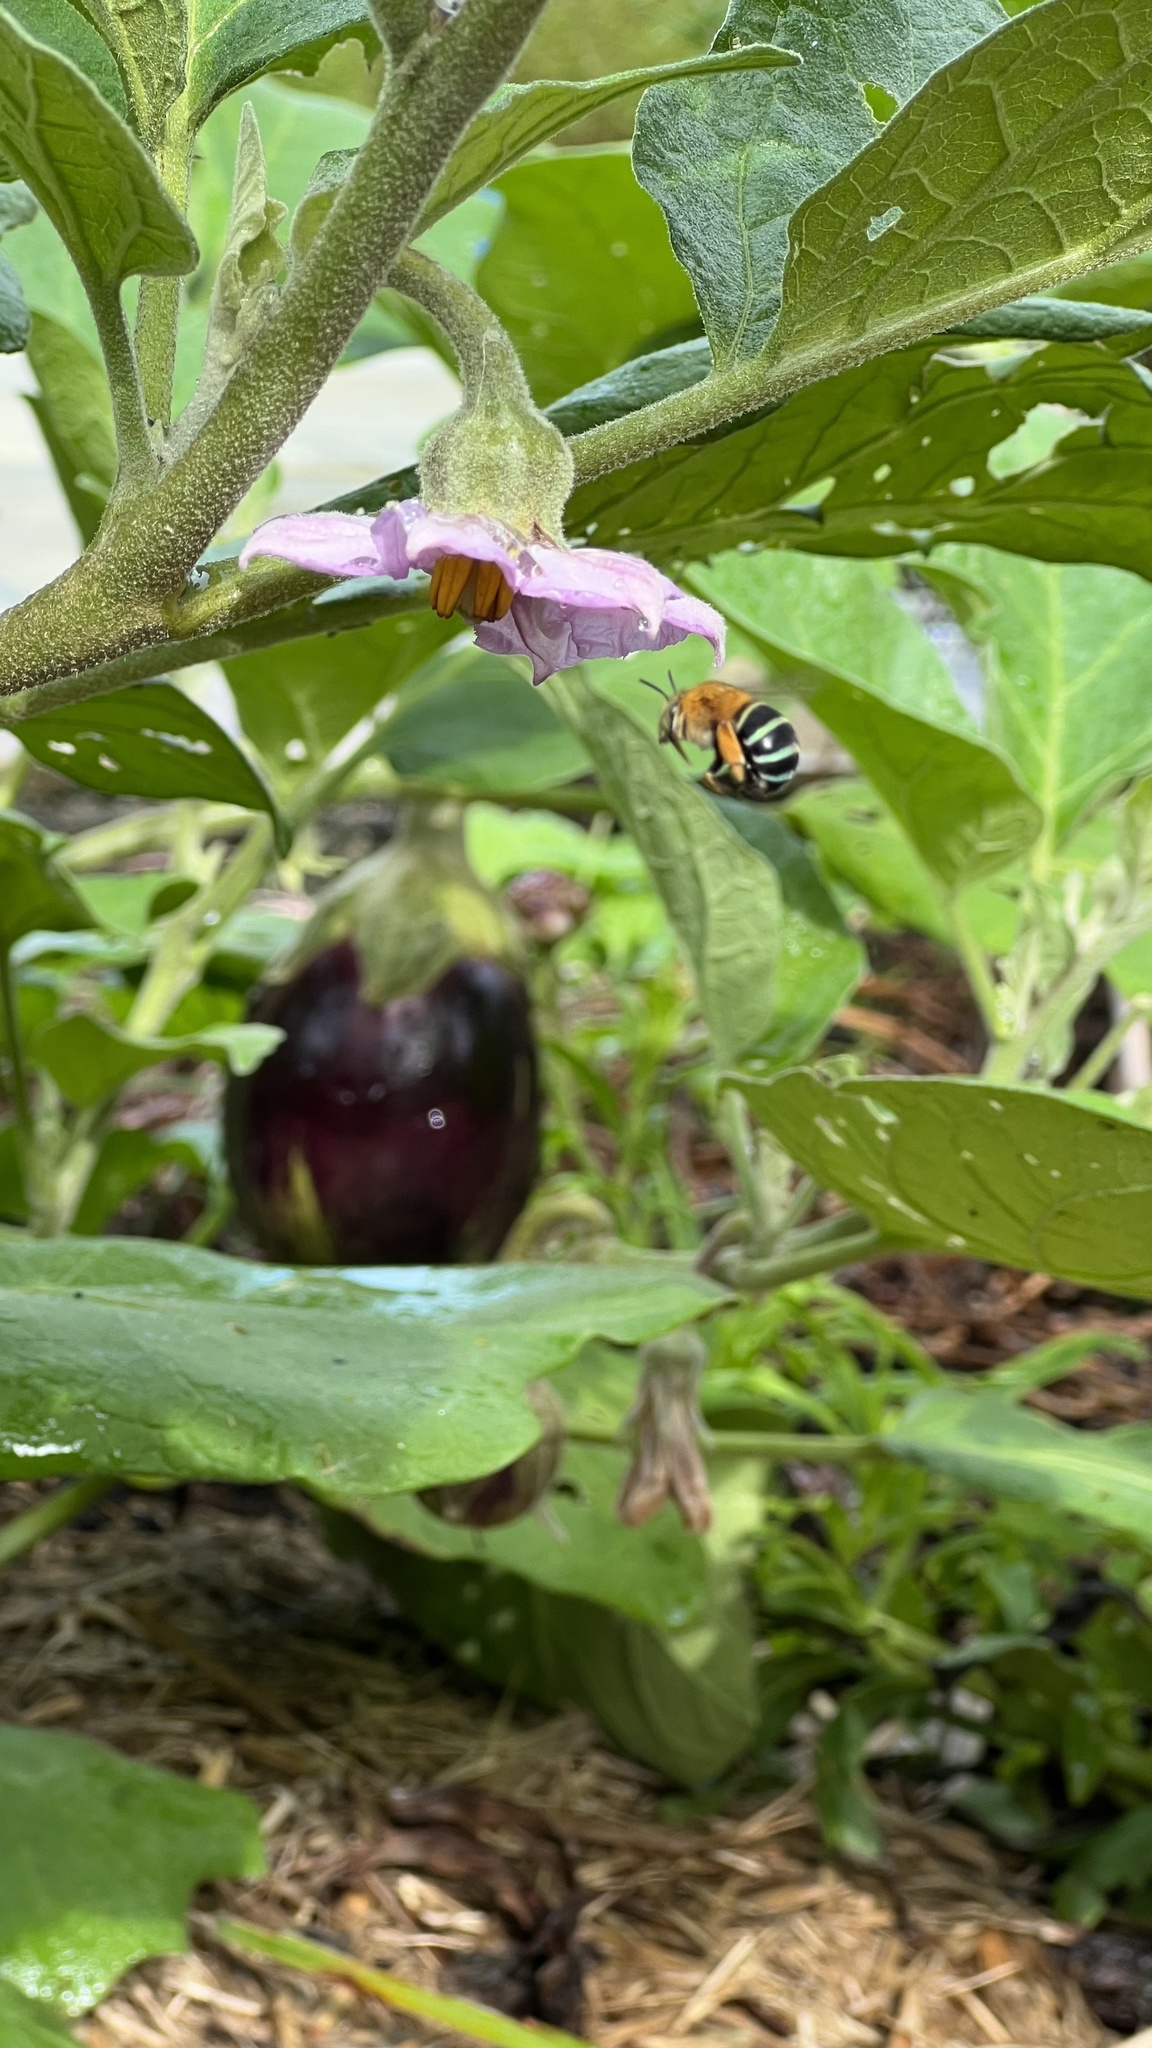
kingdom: Animalia
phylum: Arthropoda
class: Insecta
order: Hymenoptera
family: Apidae
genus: Amegilla
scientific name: Amegilla cingulata
